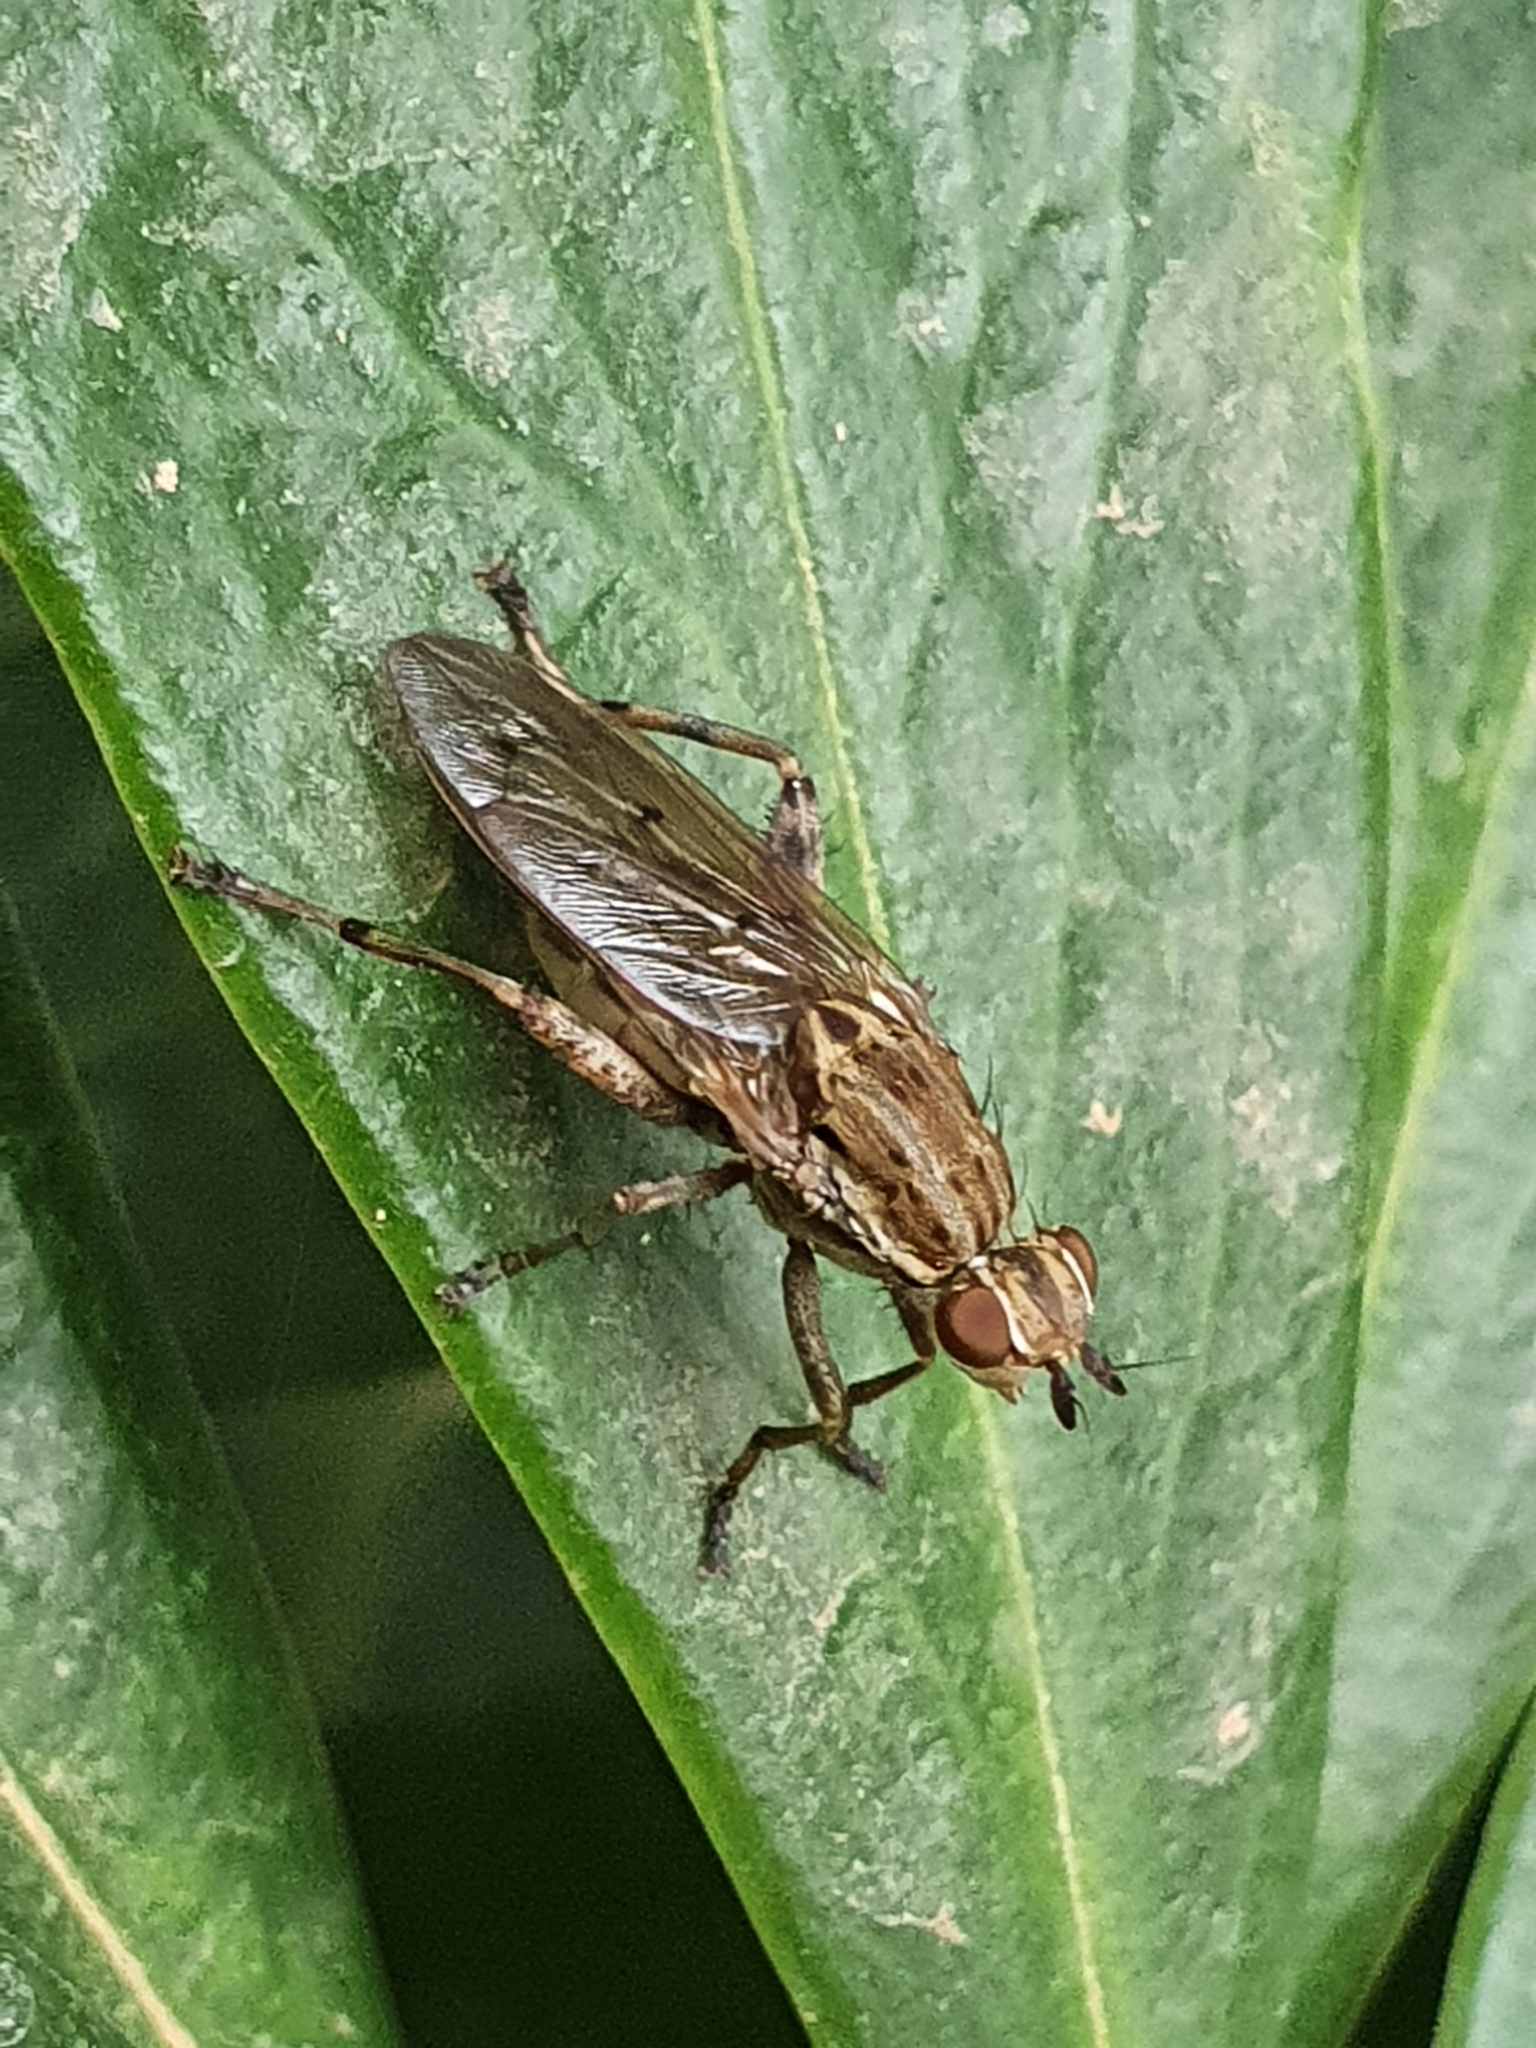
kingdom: Animalia
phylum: Arthropoda
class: Insecta
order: Diptera
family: Sciomyzidae
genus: Salticella
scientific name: Salticella fasciata
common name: Dune snail-killing fly
